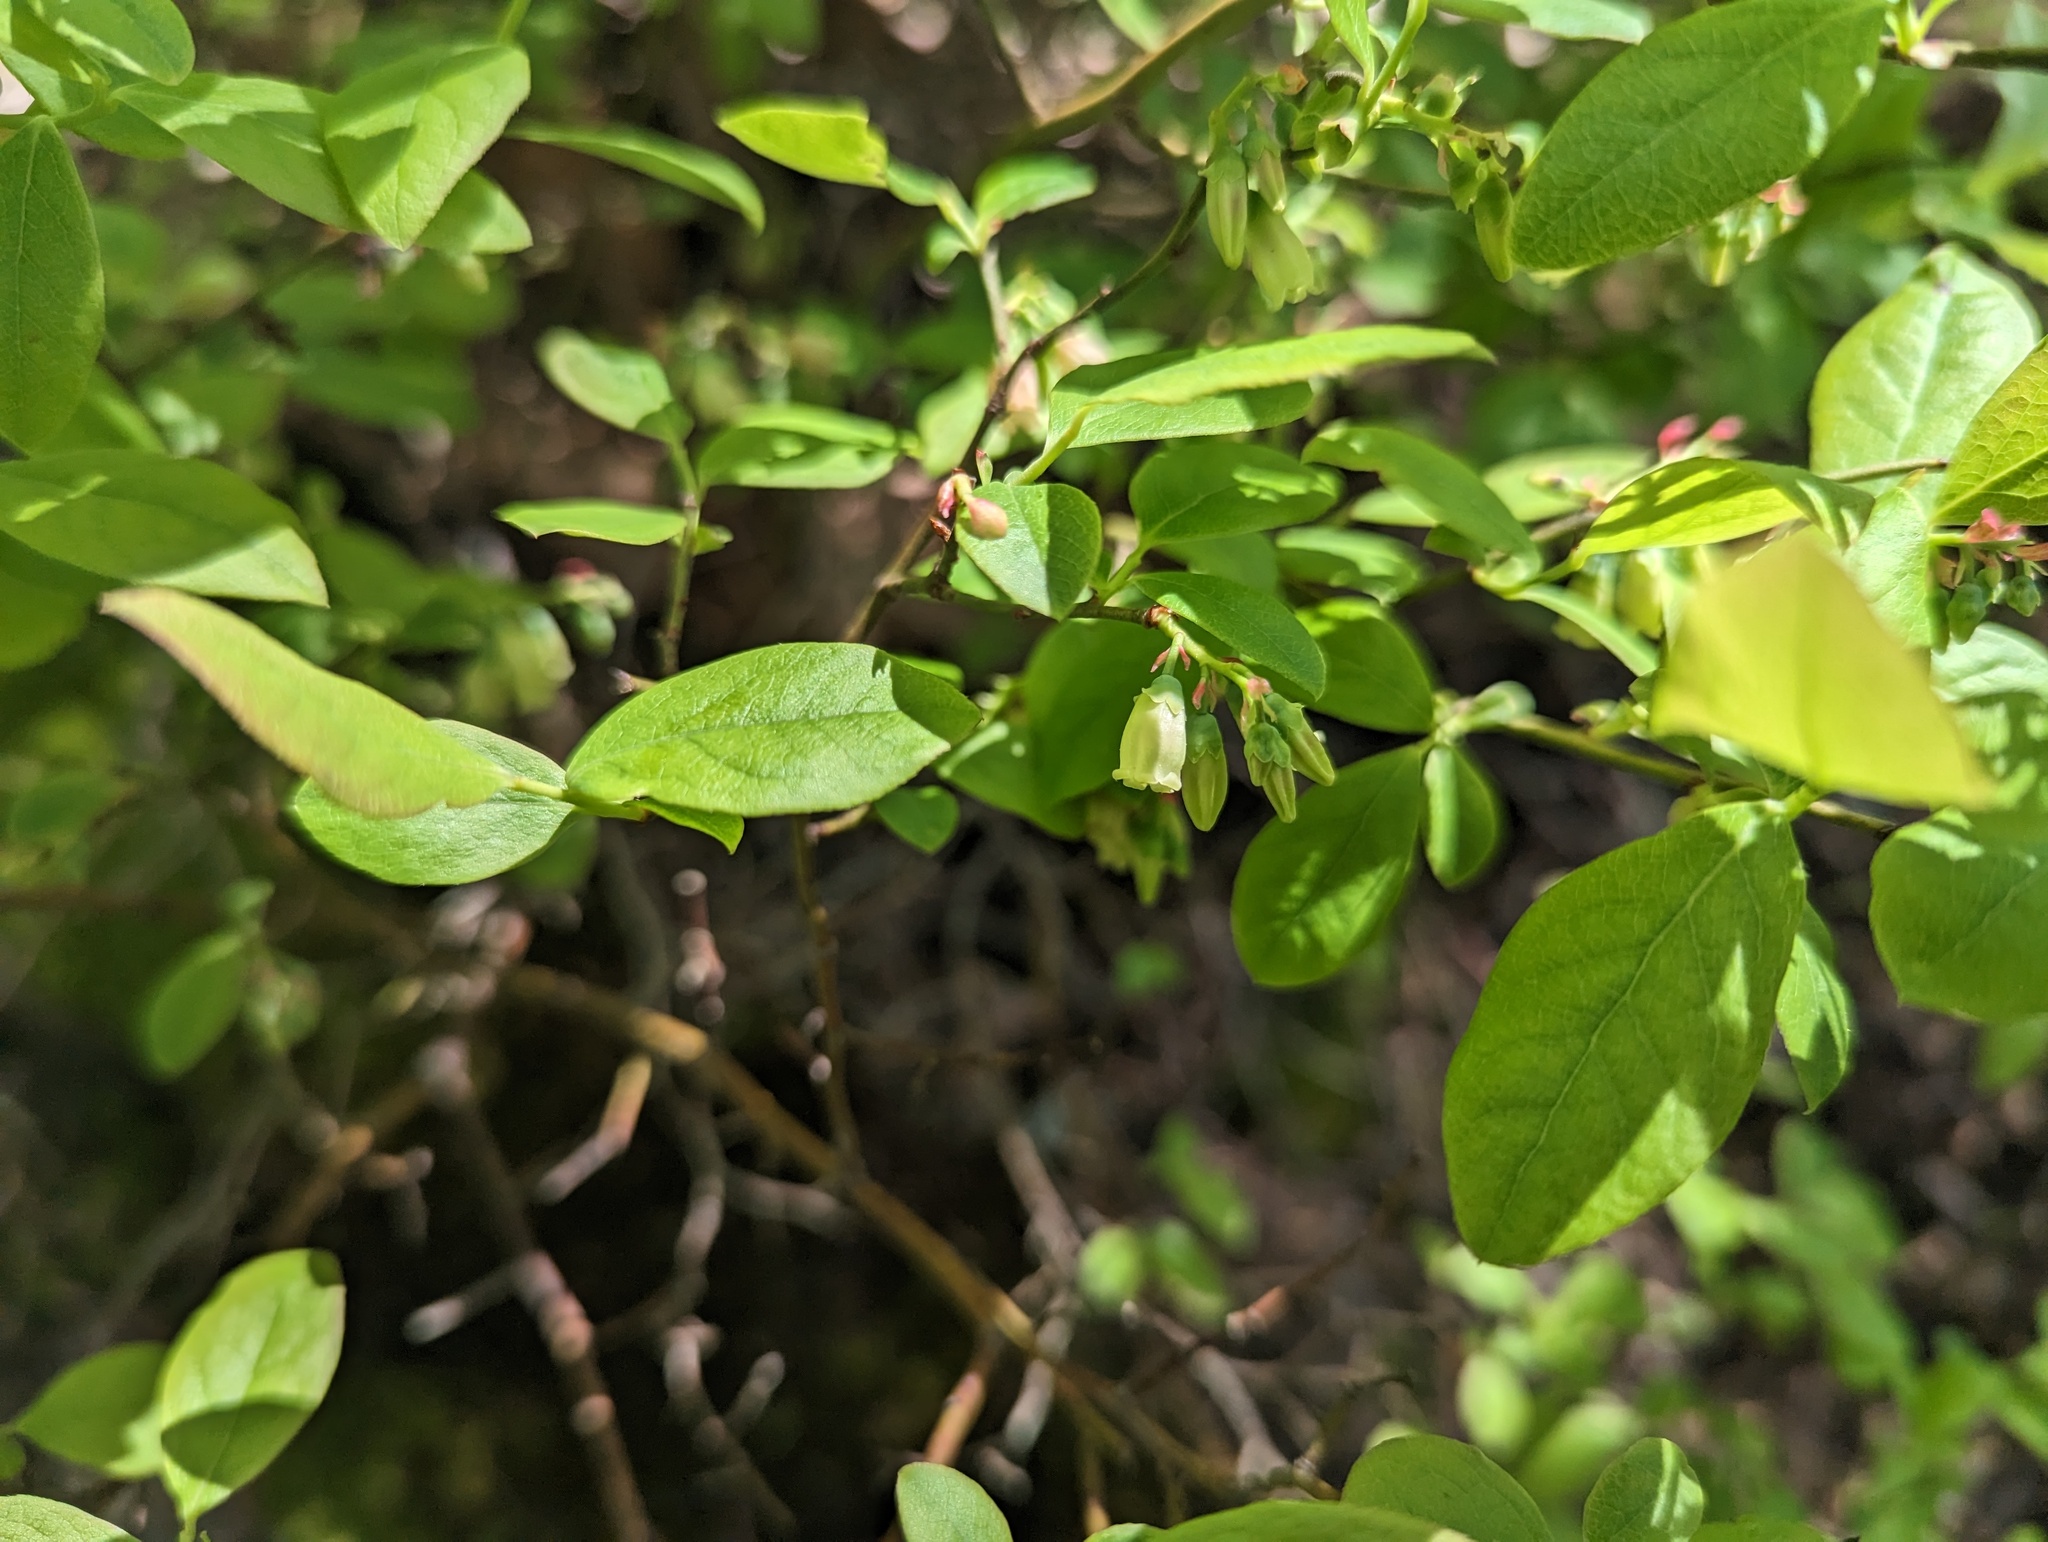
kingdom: Plantae
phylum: Tracheophyta
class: Magnoliopsida
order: Ericales
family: Ericaceae
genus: Vaccinium
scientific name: Vaccinium pallidum
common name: Blue ridge blueberry
